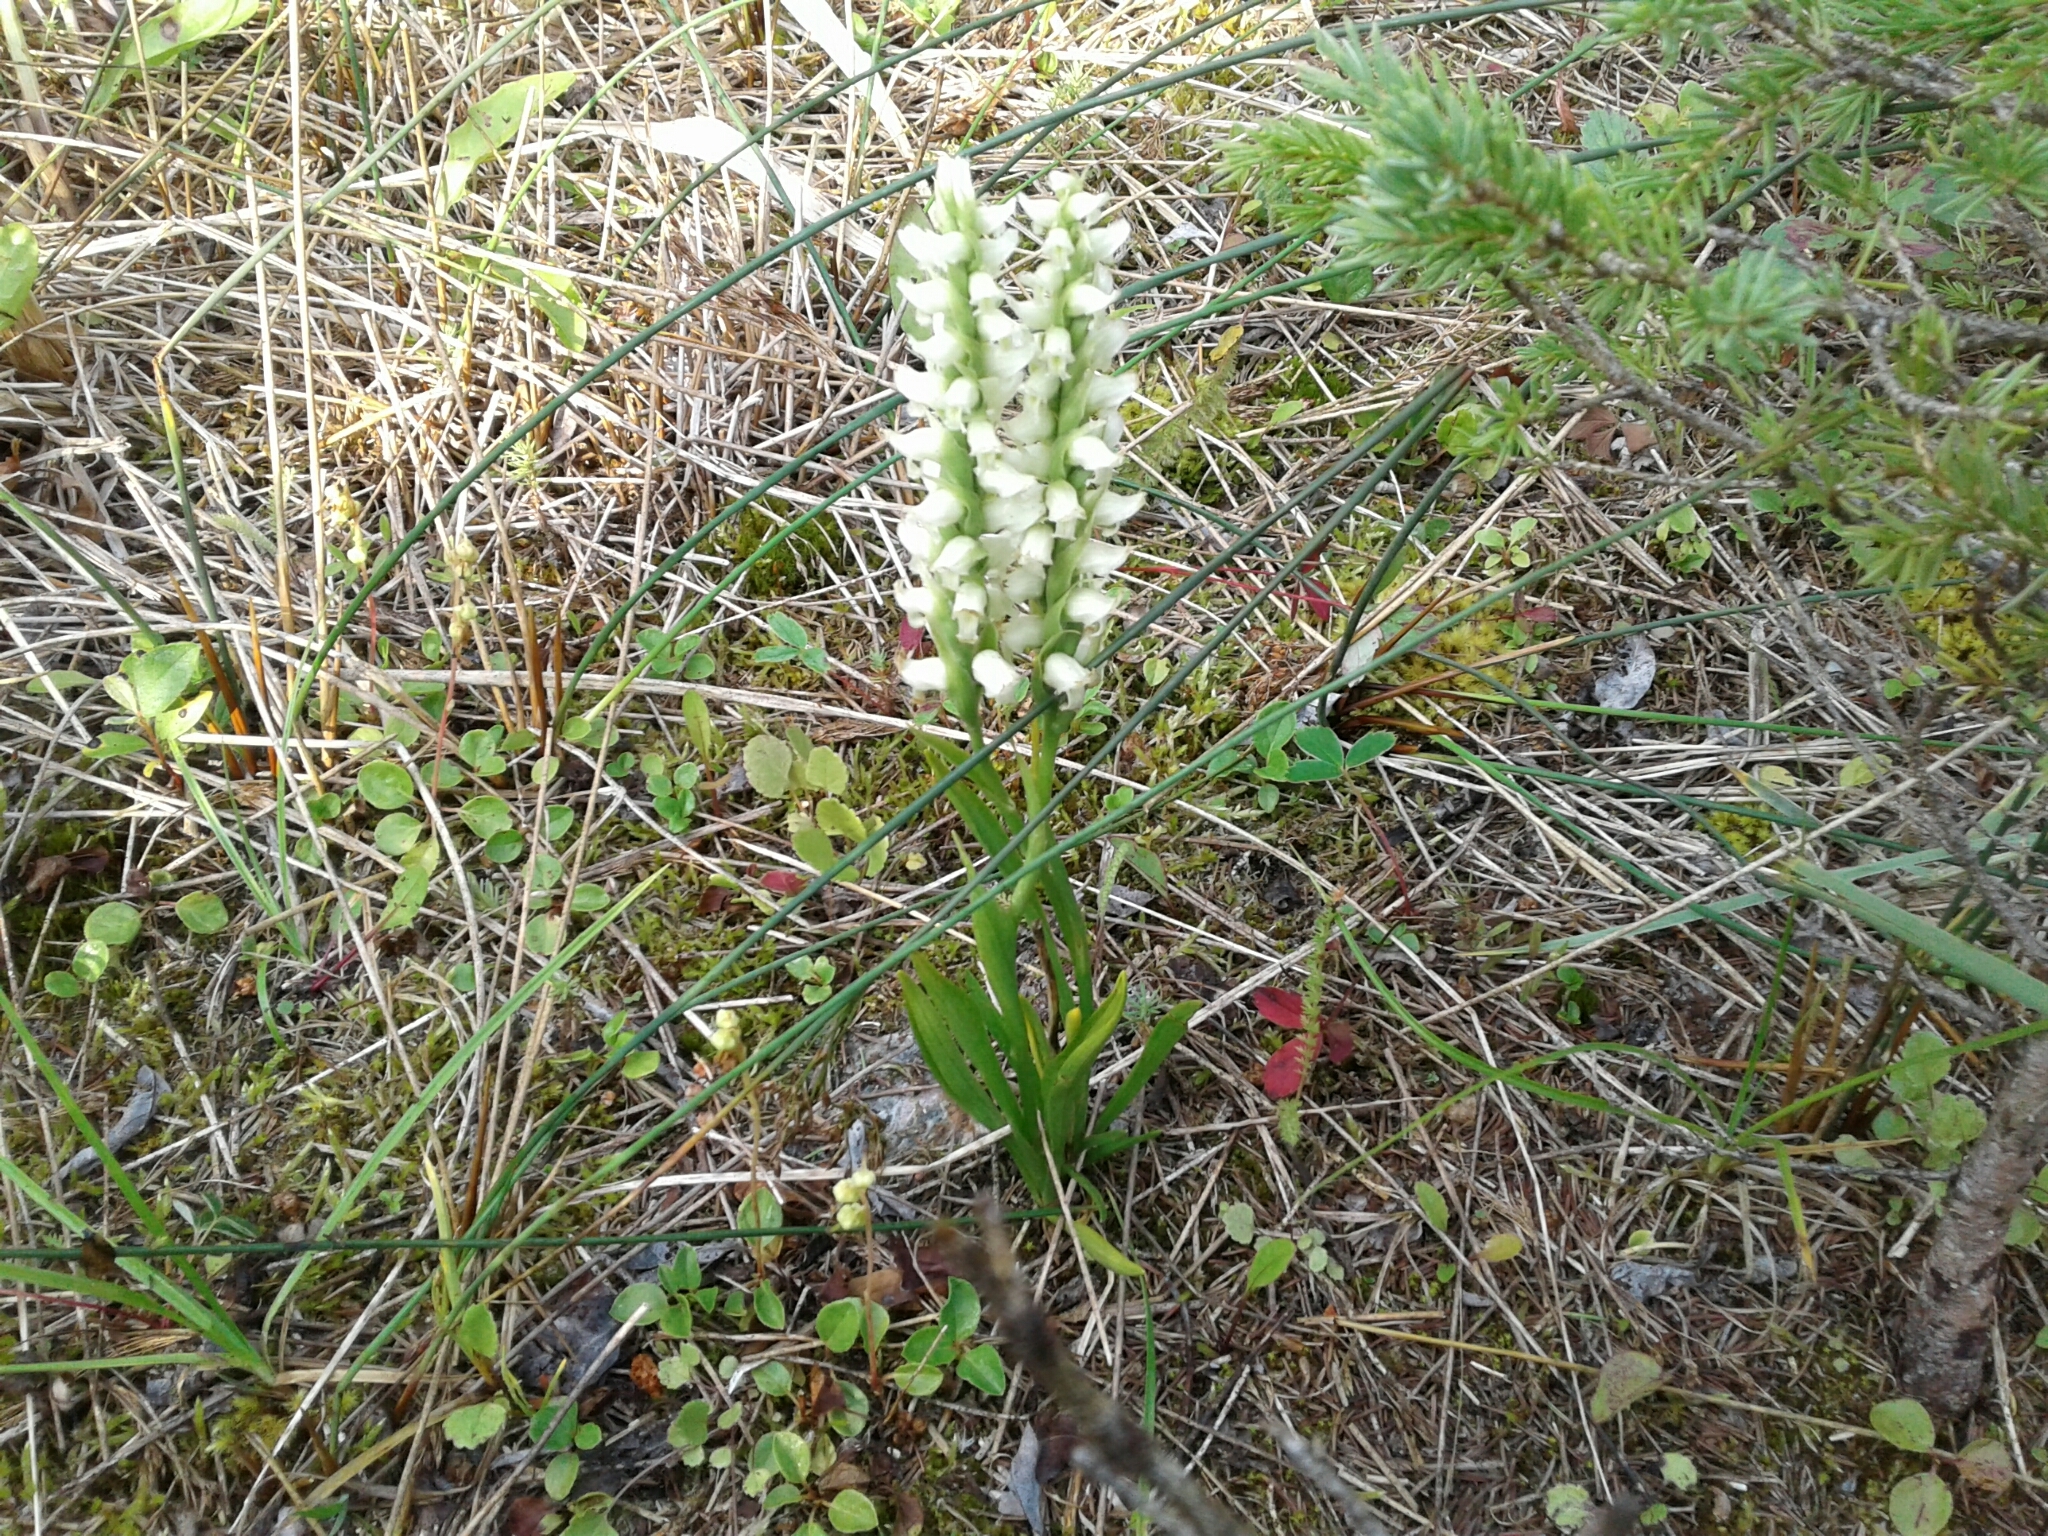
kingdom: Plantae
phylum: Tracheophyta
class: Liliopsida
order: Asparagales
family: Orchidaceae
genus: Spiranthes
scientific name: Spiranthes romanzoffiana
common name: Irish lady's-tresses
